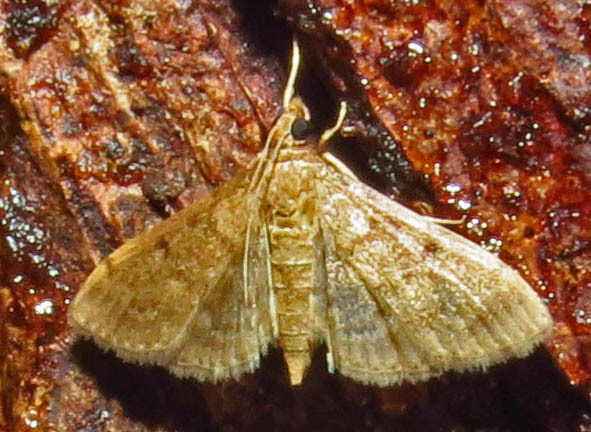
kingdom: Animalia
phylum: Arthropoda
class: Insecta
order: Lepidoptera
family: Crambidae
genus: Herpetogramma
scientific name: Herpetogramma bipunctalis
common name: Southern beet webworm
